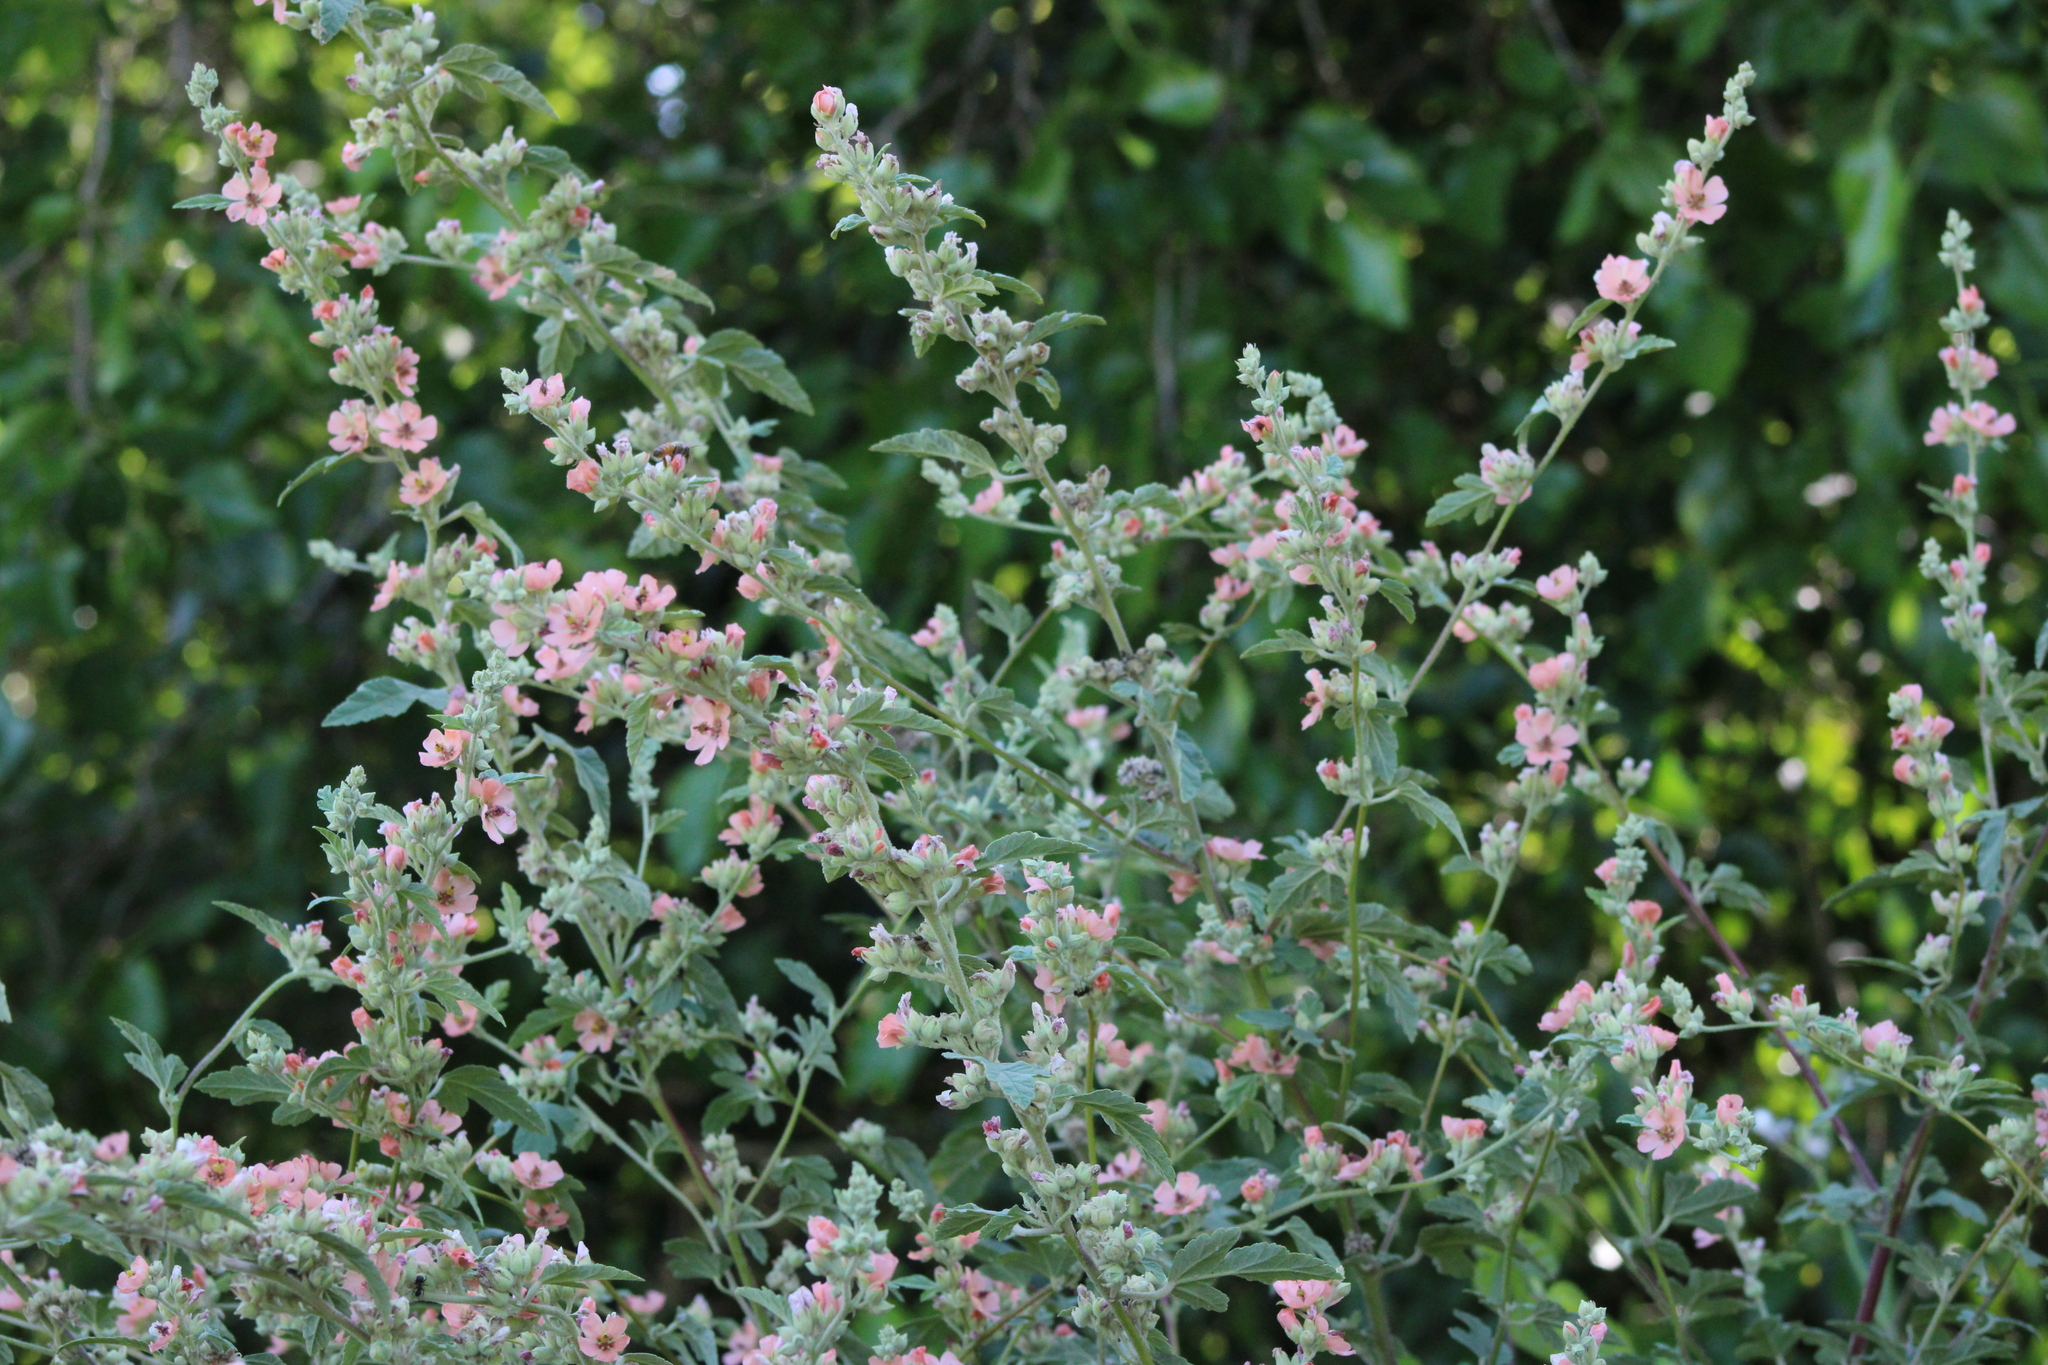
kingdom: Plantae
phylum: Tracheophyta
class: Magnoliopsida
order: Malvales
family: Malvaceae
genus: Sphaeralcea
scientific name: Sphaeralcea bonariensis
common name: Latin globemallow
